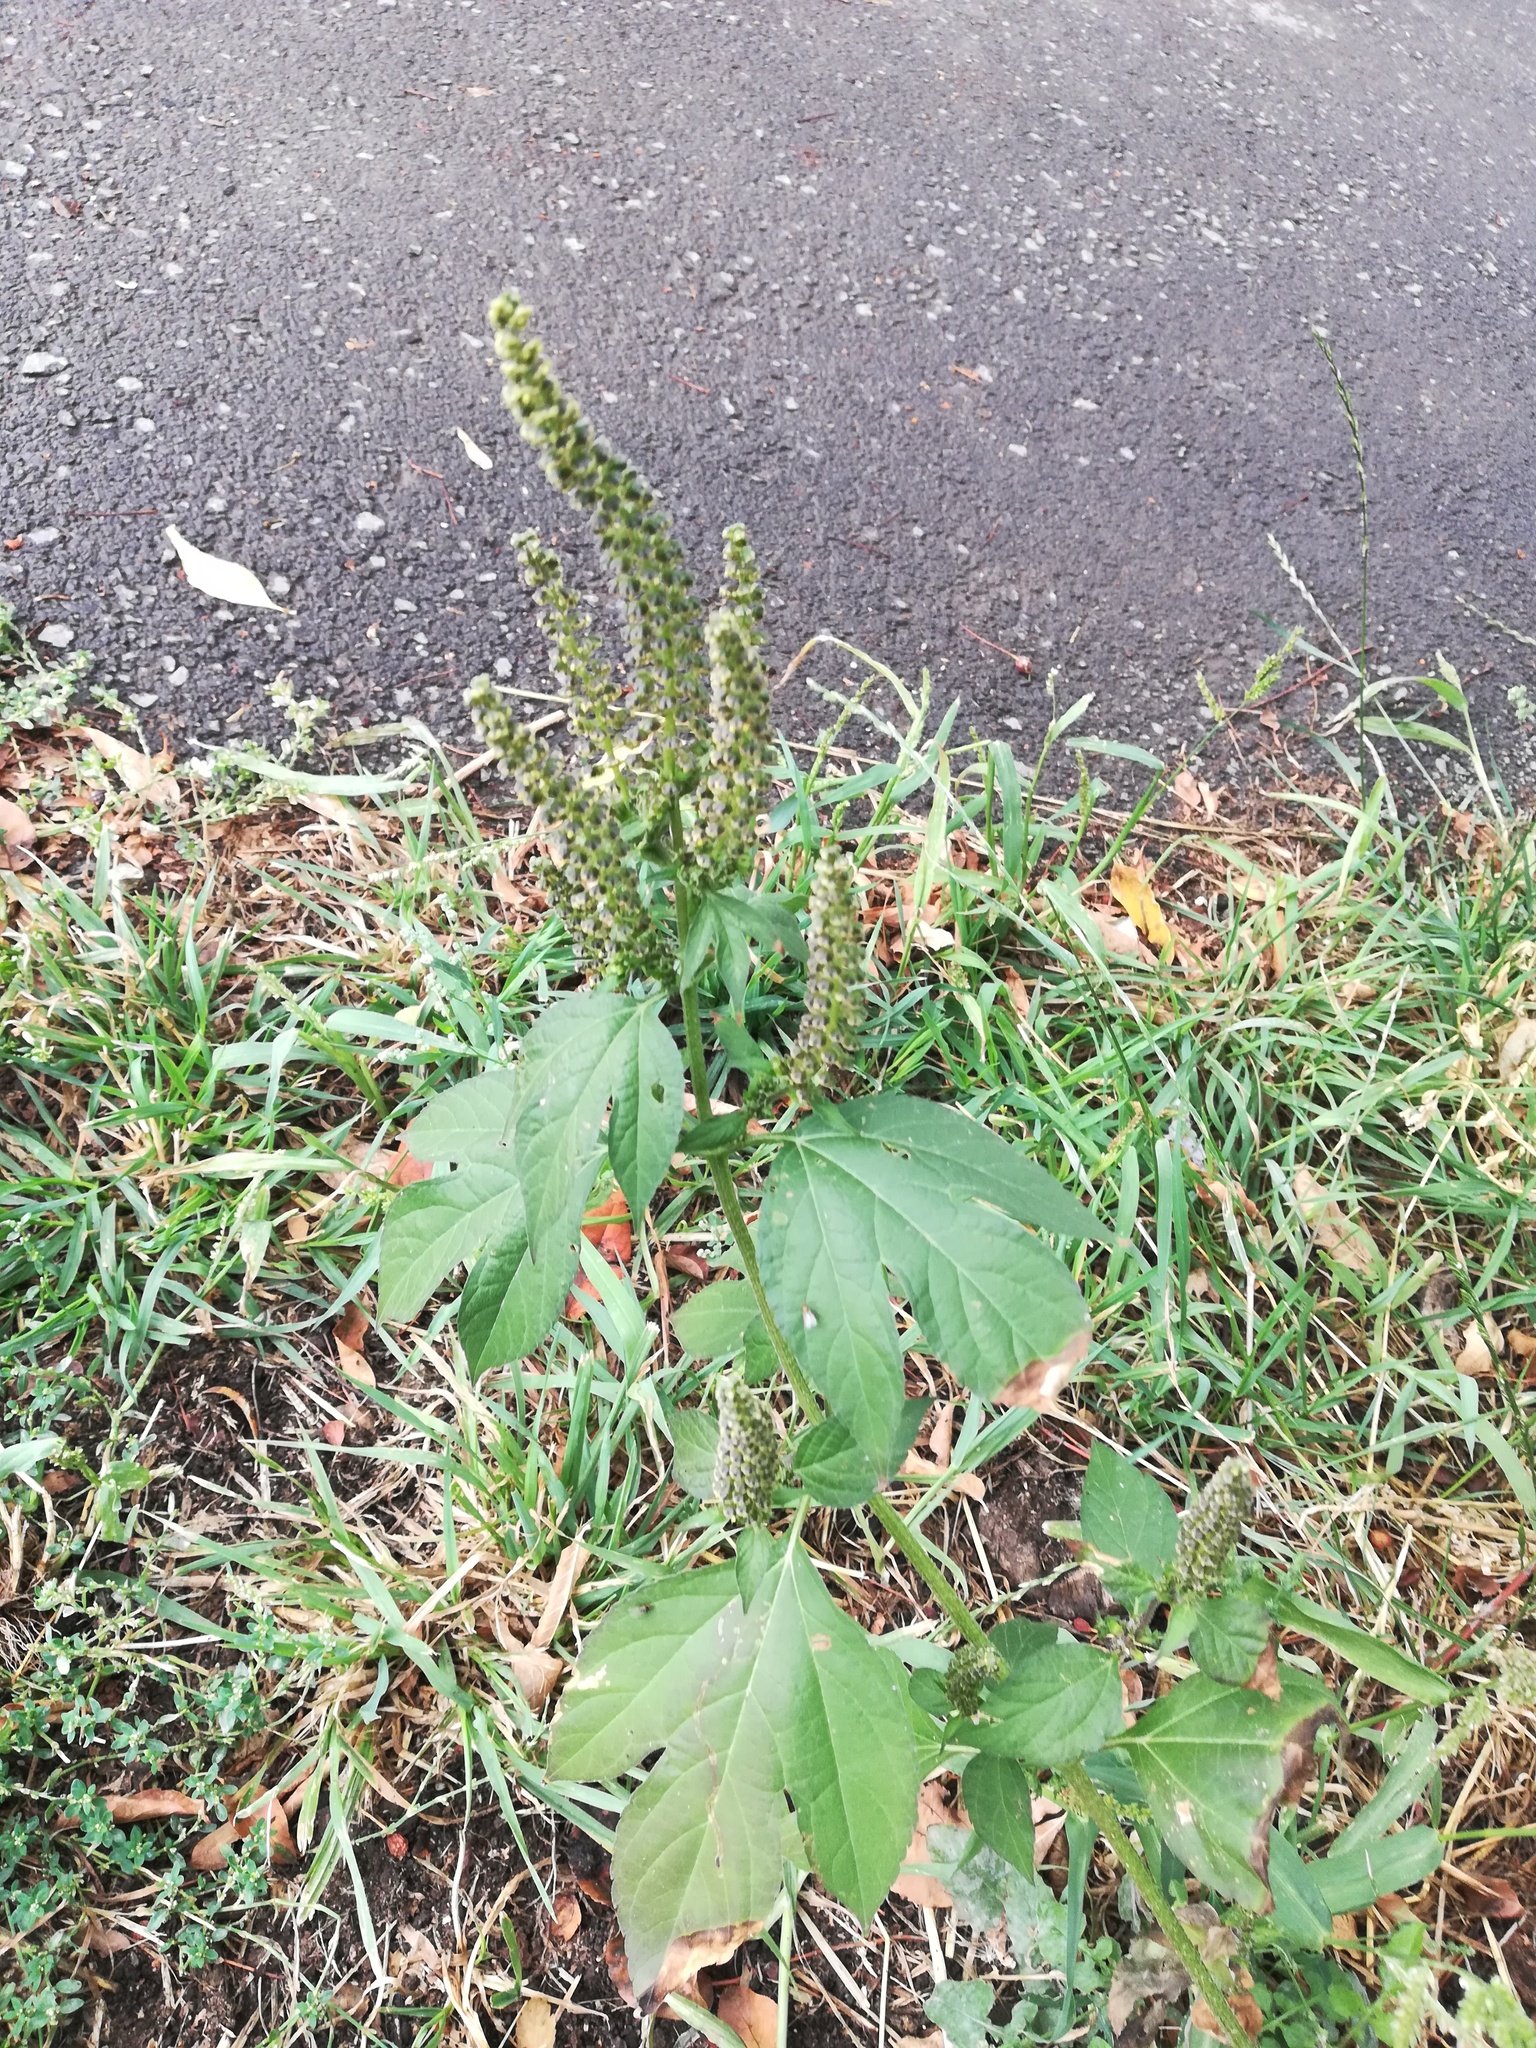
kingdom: Plantae
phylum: Tracheophyta
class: Magnoliopsida
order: Asterales
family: Asteraceae
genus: Ambrosia
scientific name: Ambrosia trifida
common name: Giant ragweed
